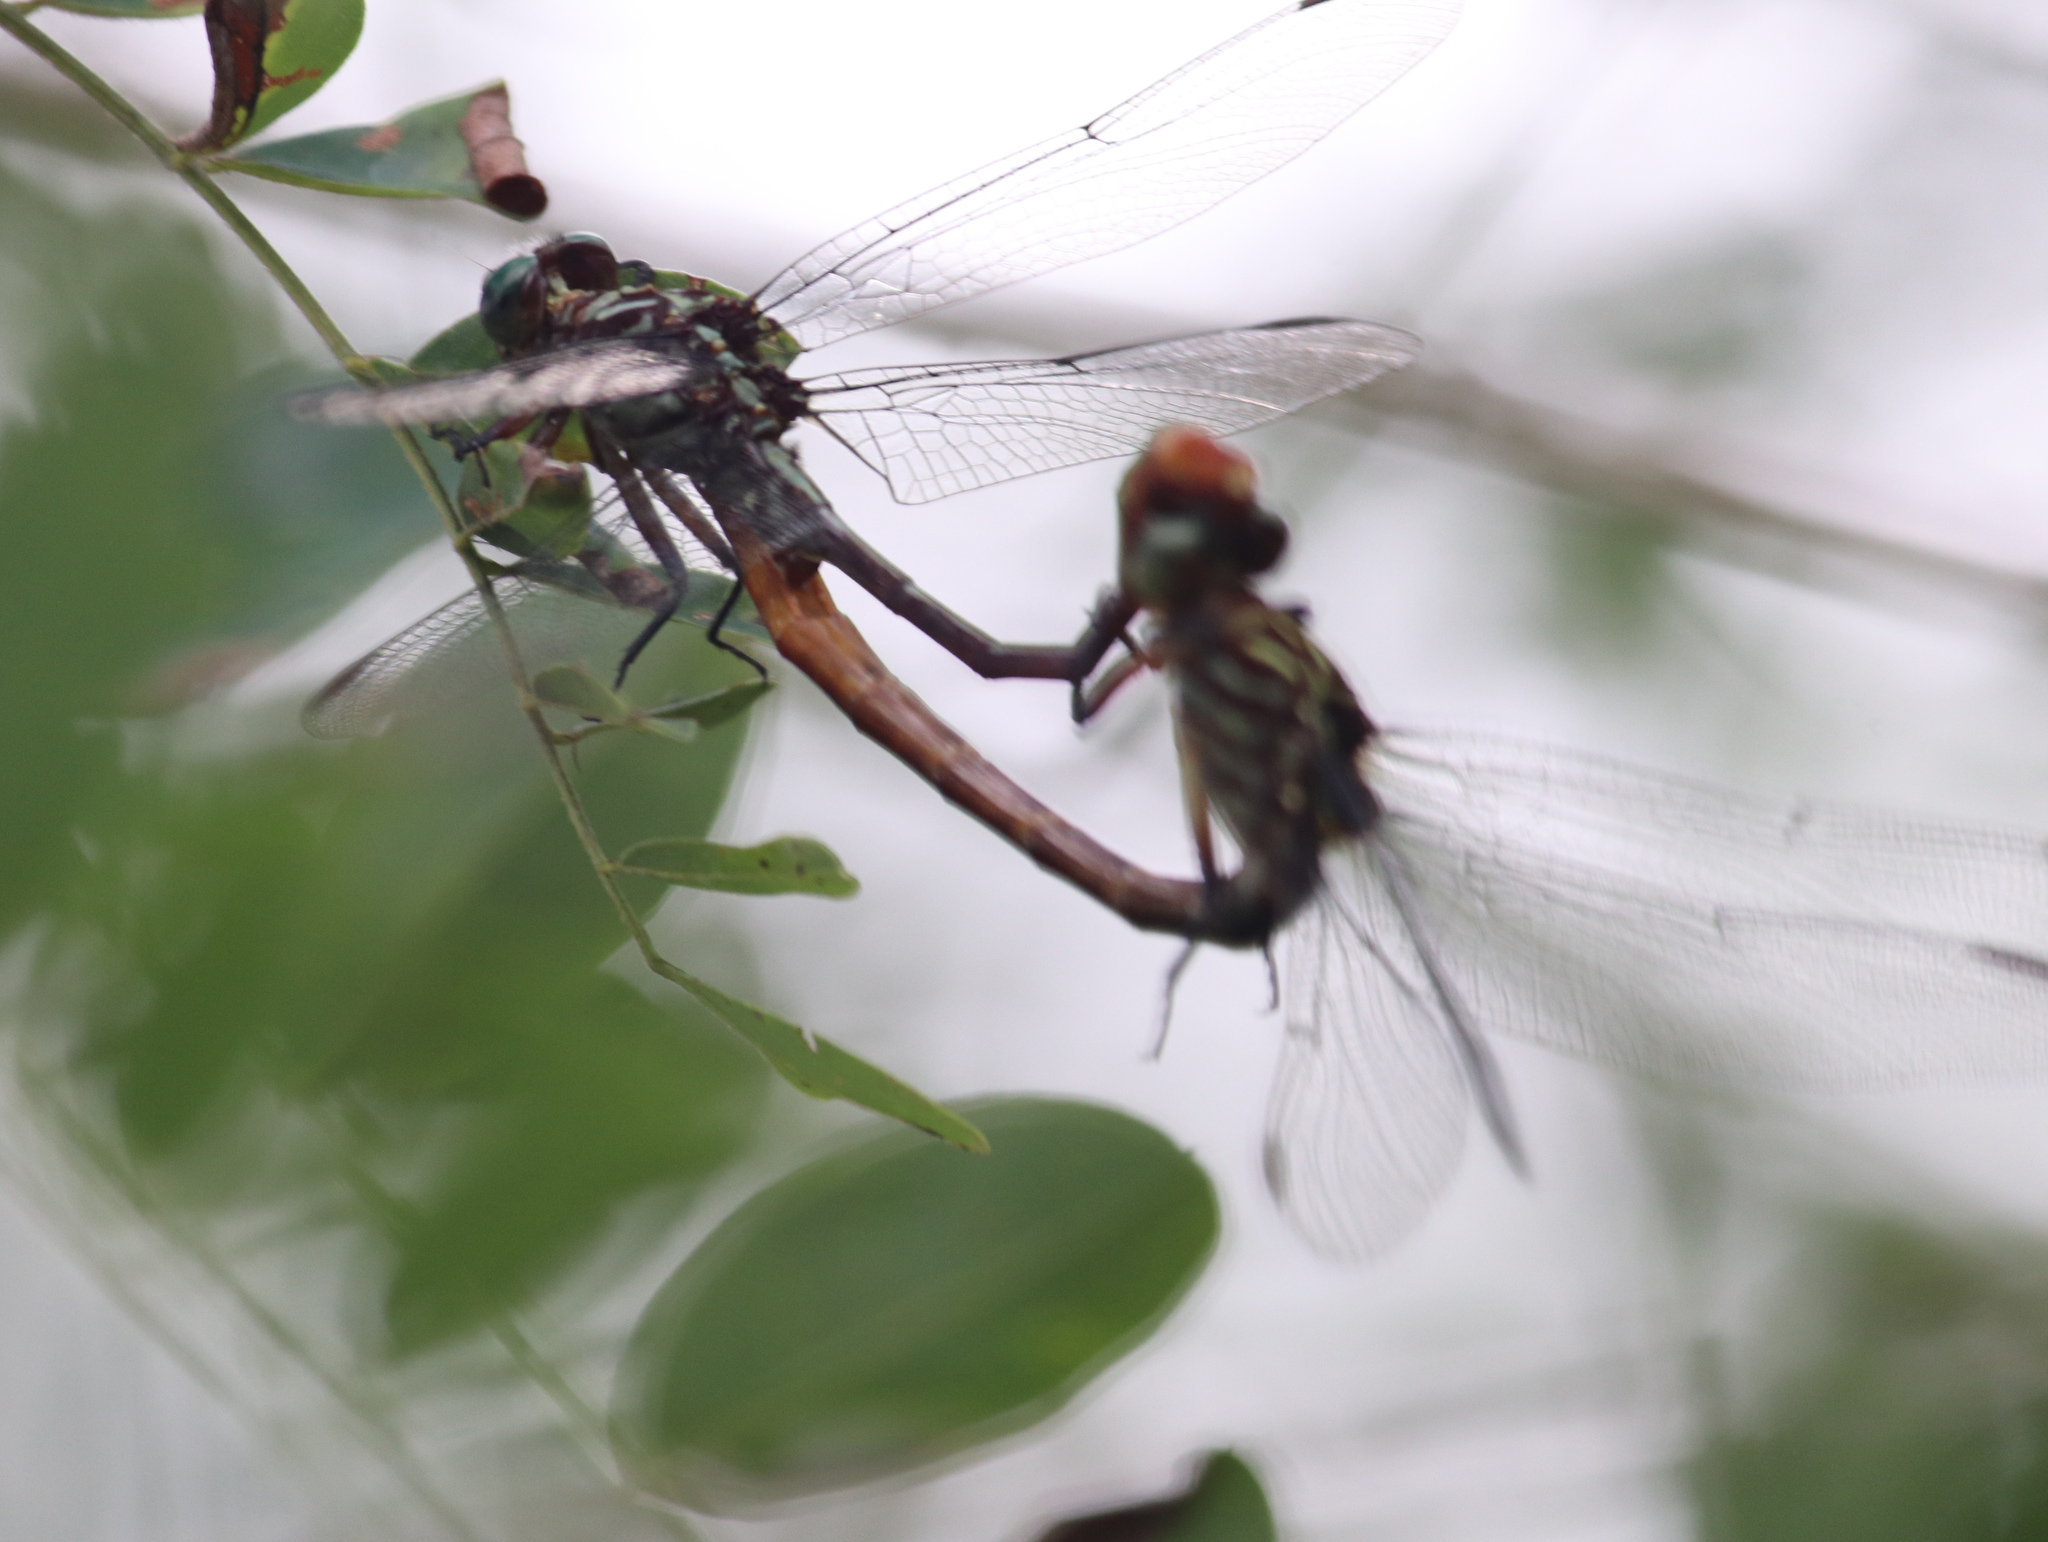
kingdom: Animalia
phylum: Arthropoda
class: Insecta
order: Odonata
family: Gomphidae
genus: Stylurus
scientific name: Stylurus plagiatus
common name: Russet-tipped clubtail
